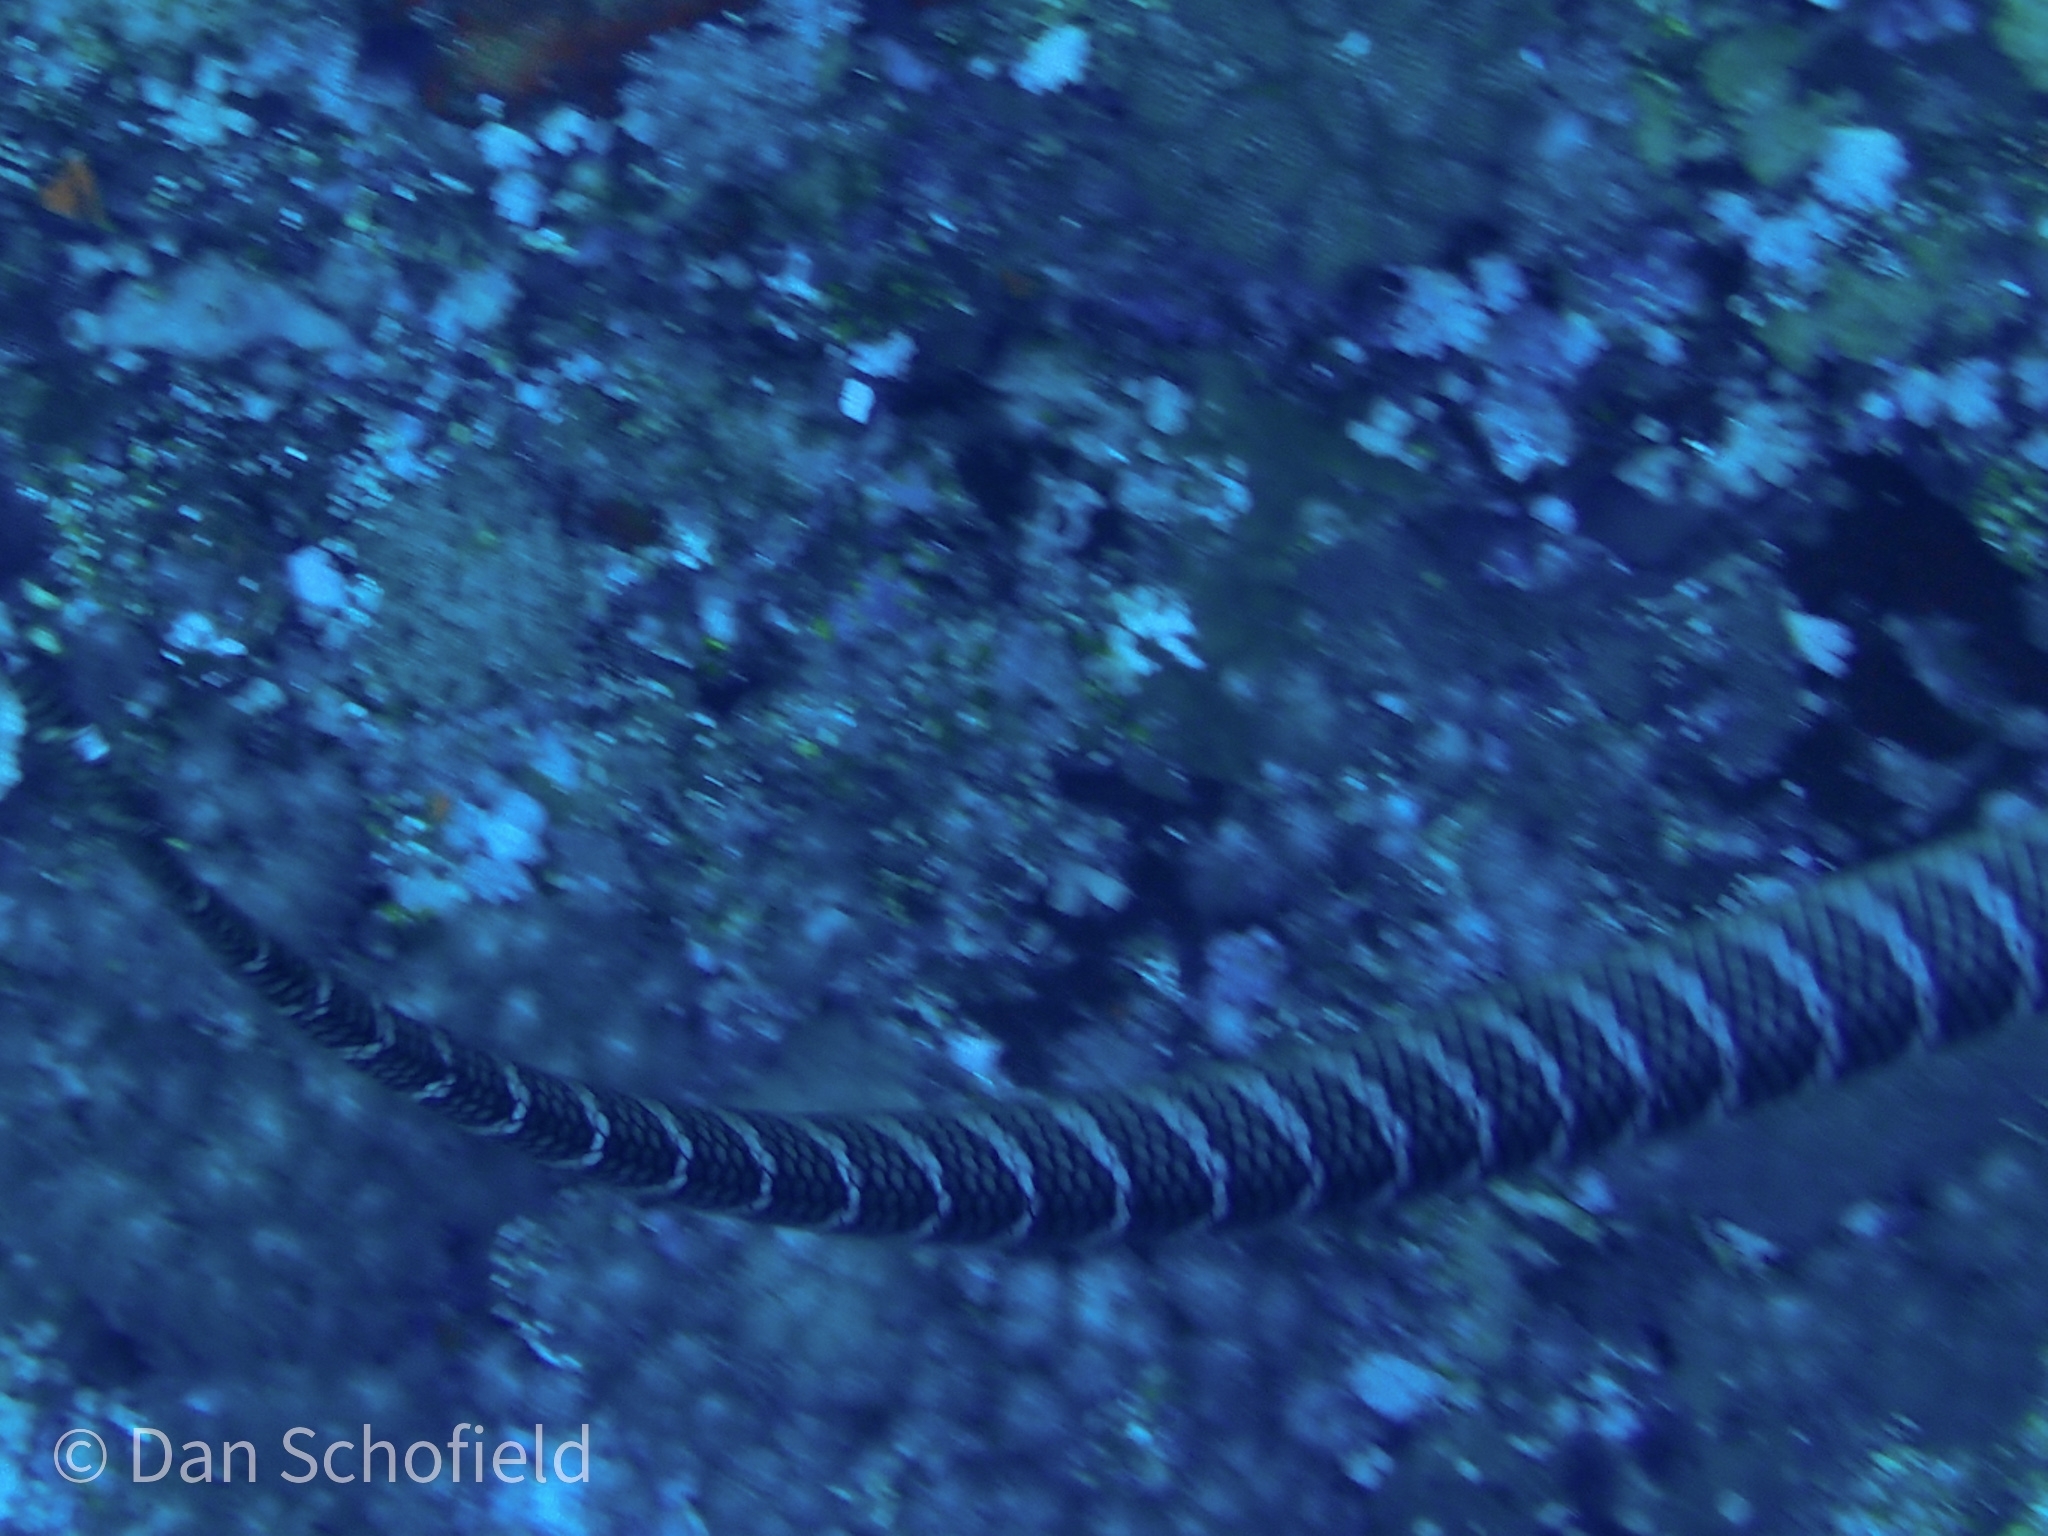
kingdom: Animalia
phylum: Chordata
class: Squamata
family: Elapidae
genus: Laticauda
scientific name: Laticauda semifasciata
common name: Chinese sea snake
